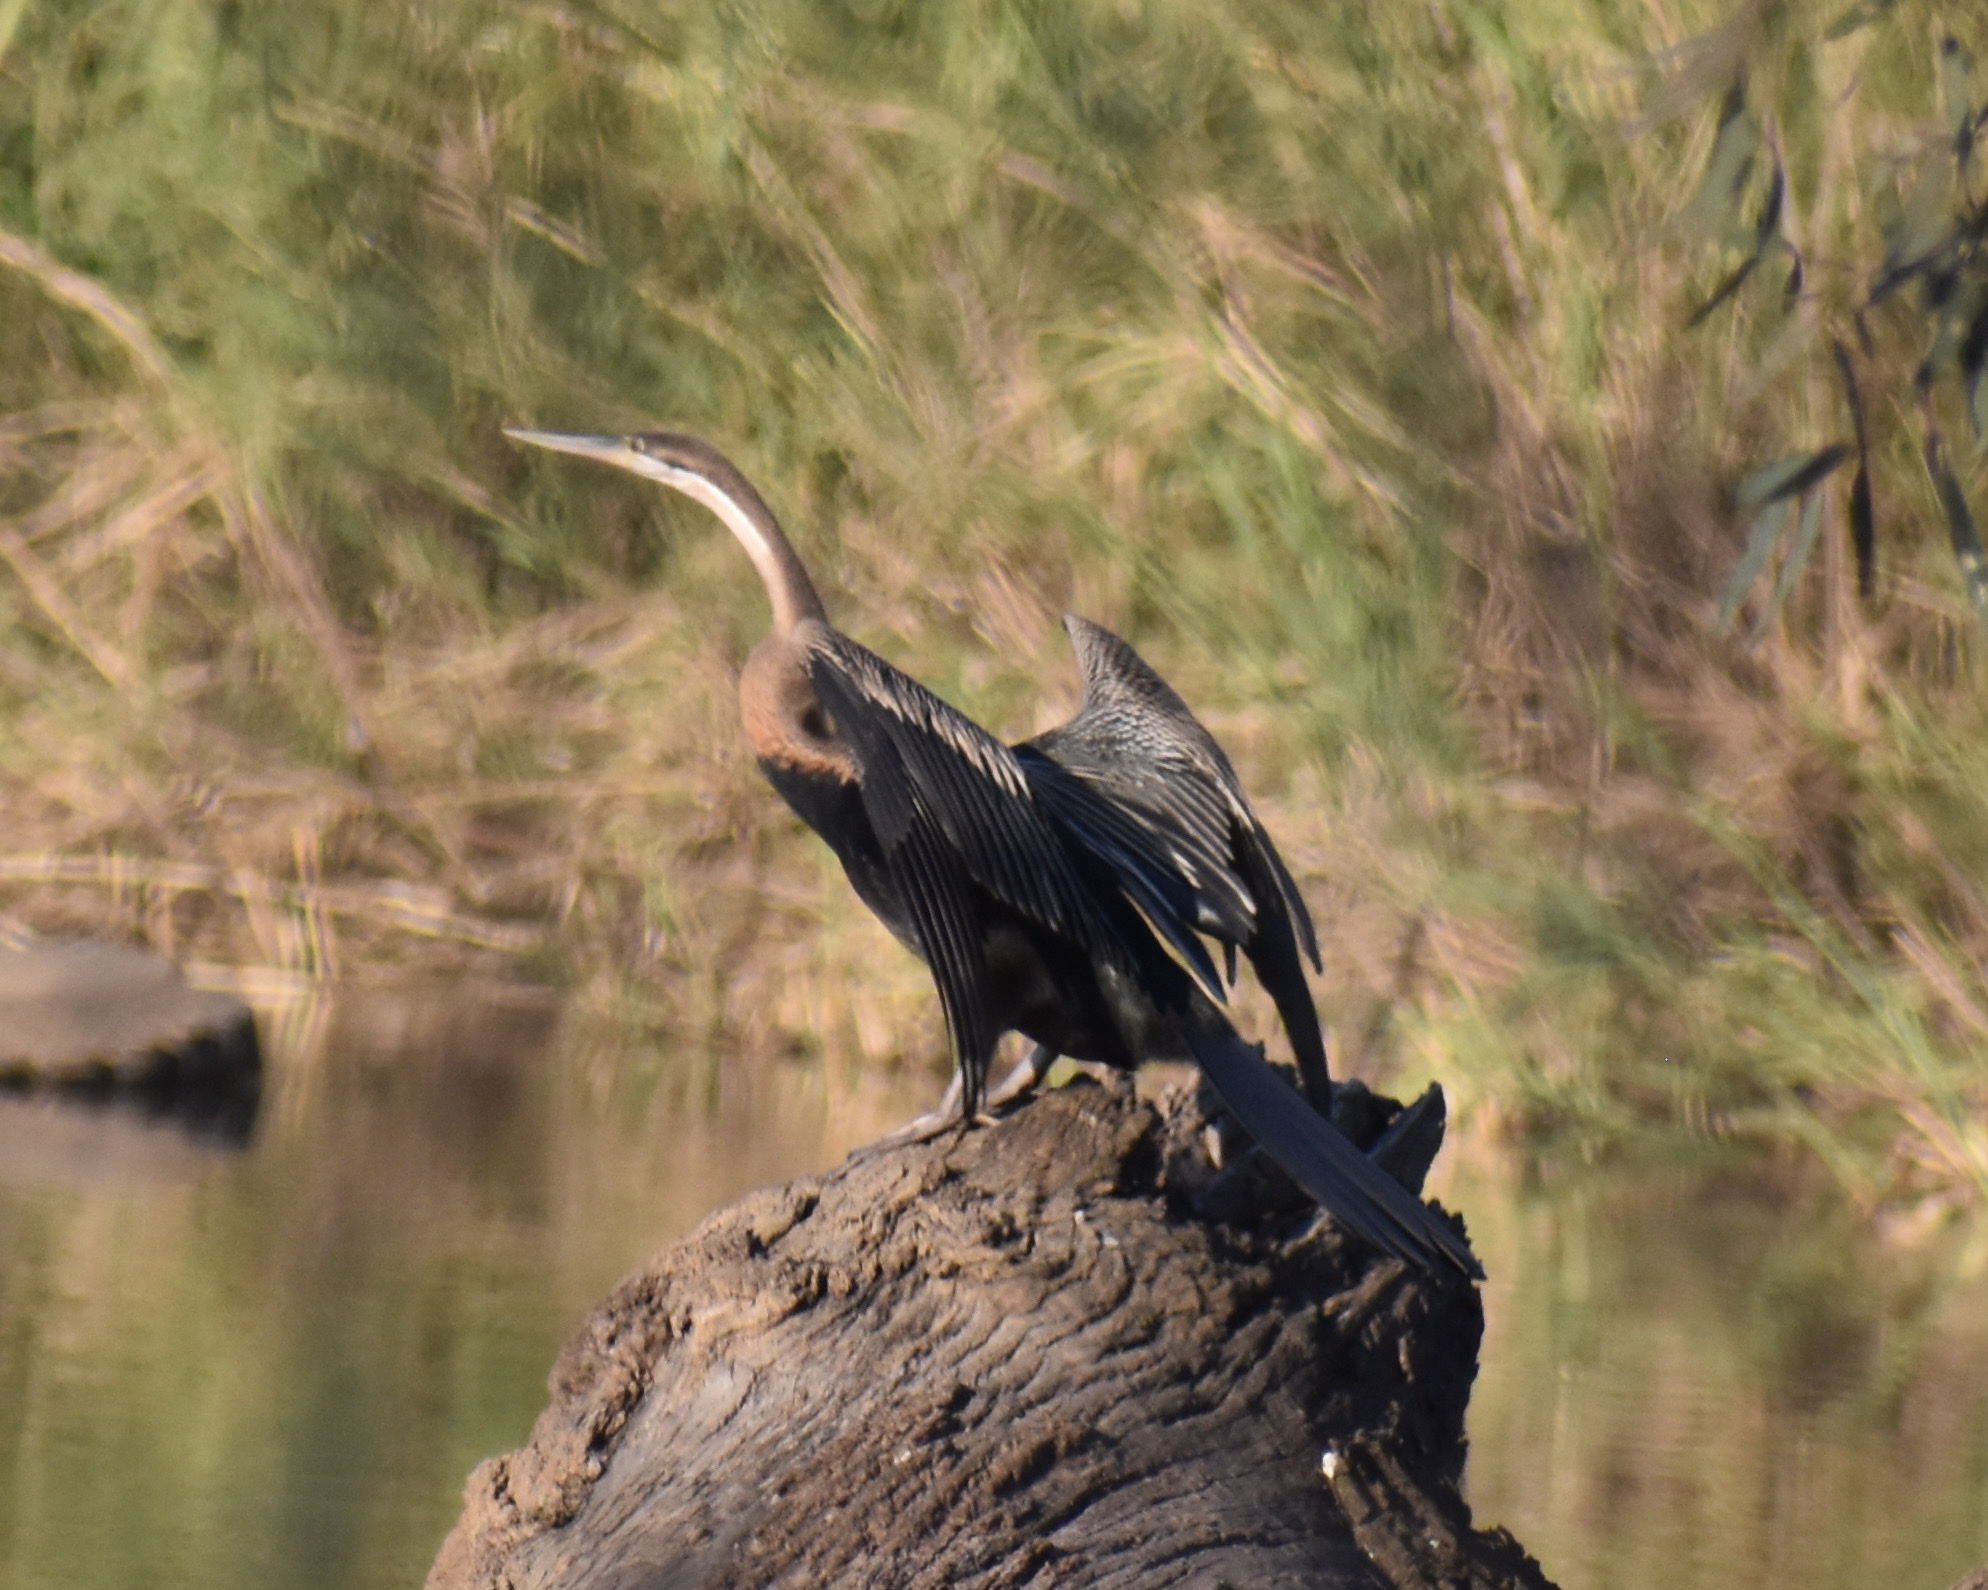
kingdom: Animalia
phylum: Chordata
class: Aves
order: Suliformes
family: Anhingidae
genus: Anhinga
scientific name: Anhinga rufa
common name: African darter
